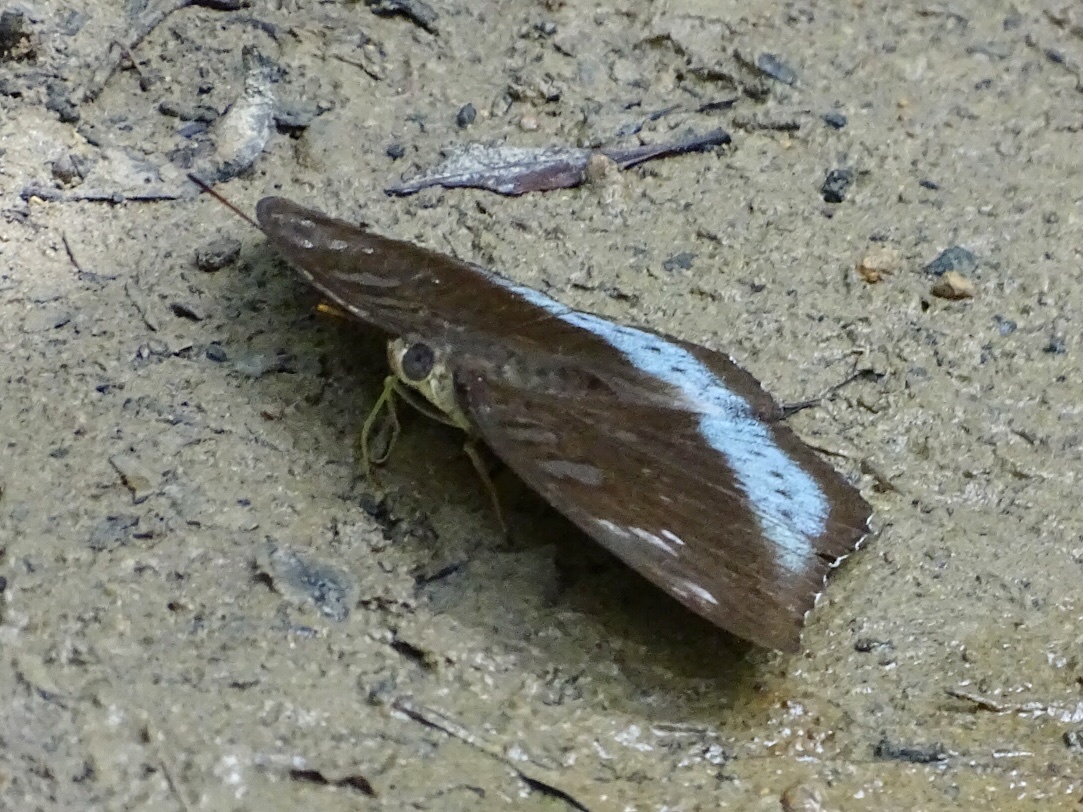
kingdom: Animalia
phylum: Arthropoda
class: Insecta
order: Lepidoptera
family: Nymphalidae
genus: Tanaecia
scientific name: Tanaecia
